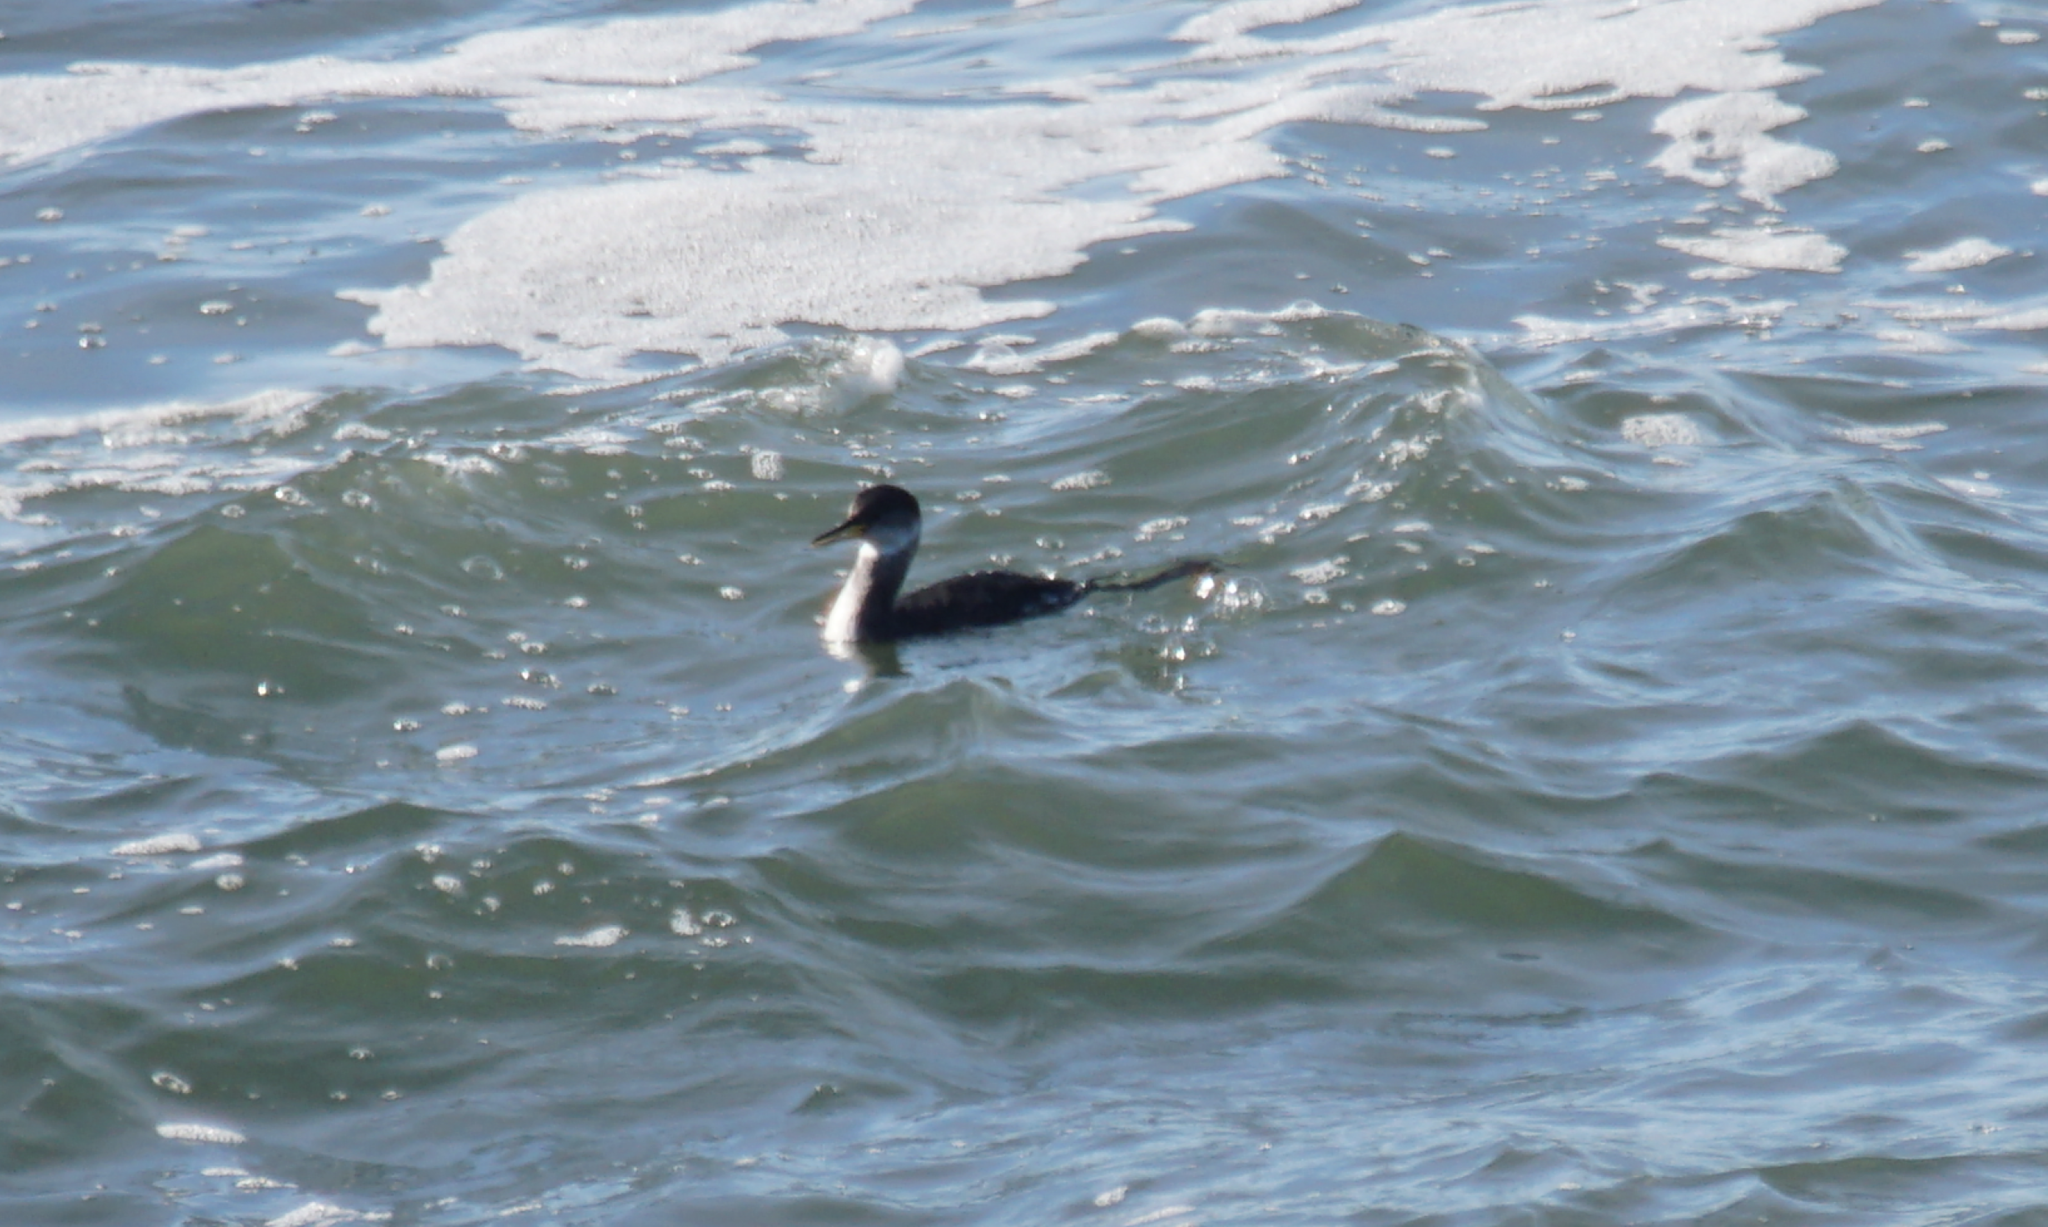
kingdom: Animalia
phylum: Chordata
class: Aves
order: Podicipediformes
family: Podicipedidae
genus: Podiceps
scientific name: Podiceps grisegena
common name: Red-necked grebe
